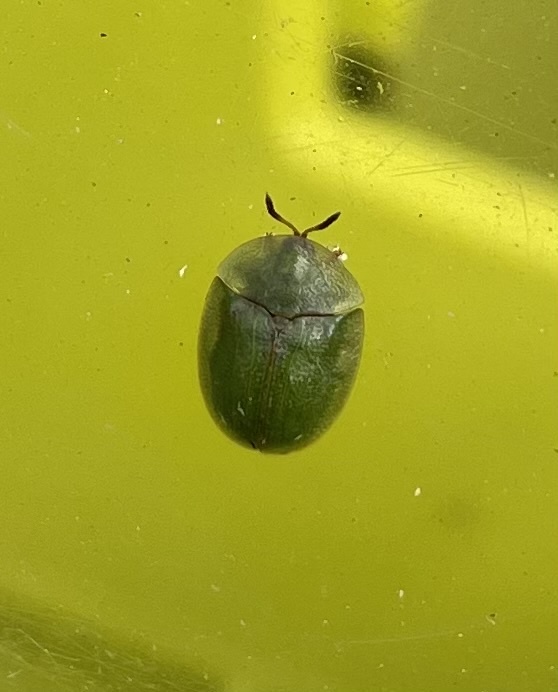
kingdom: Animalia
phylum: Arthropoda
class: Insecta
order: Coleoptera
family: Chrysomelidae
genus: Cassida
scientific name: Cassida rubiginosa
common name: Thistle tortoise beetle
